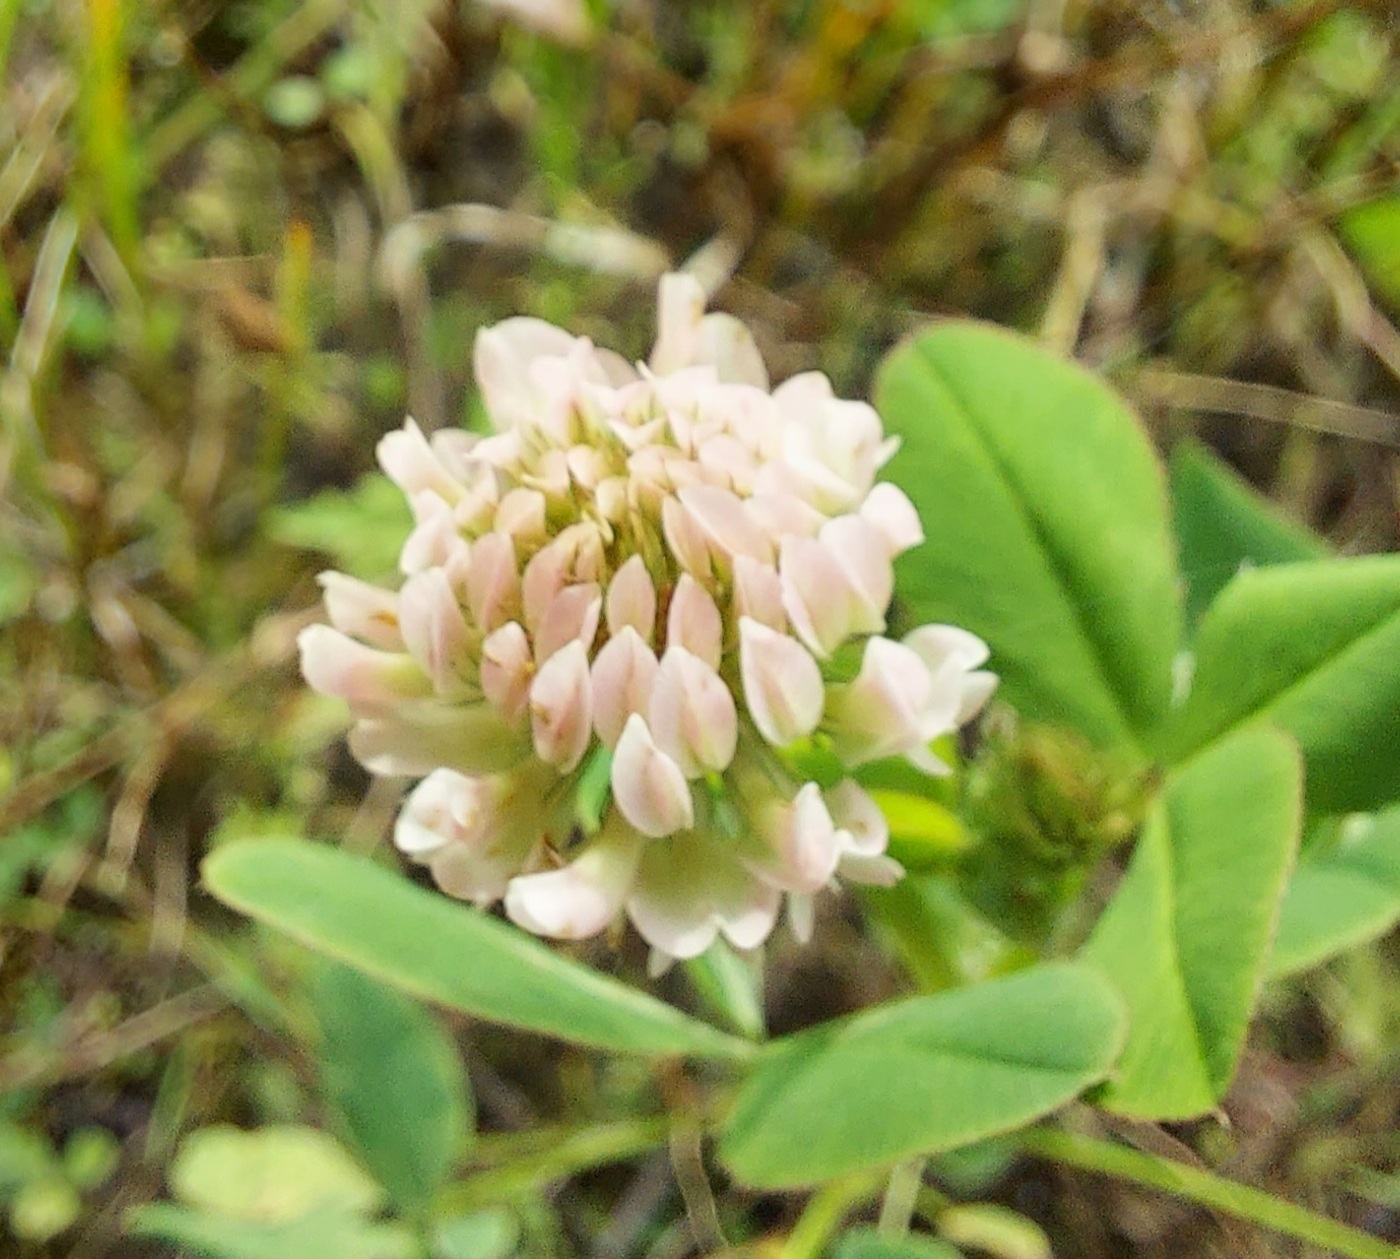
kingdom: Plantae
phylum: Tracheophyta
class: Magnoliopsida
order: Fabales
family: Fabaceae
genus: Trifolium
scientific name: Trifolium hybridum
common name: Alsike clover
